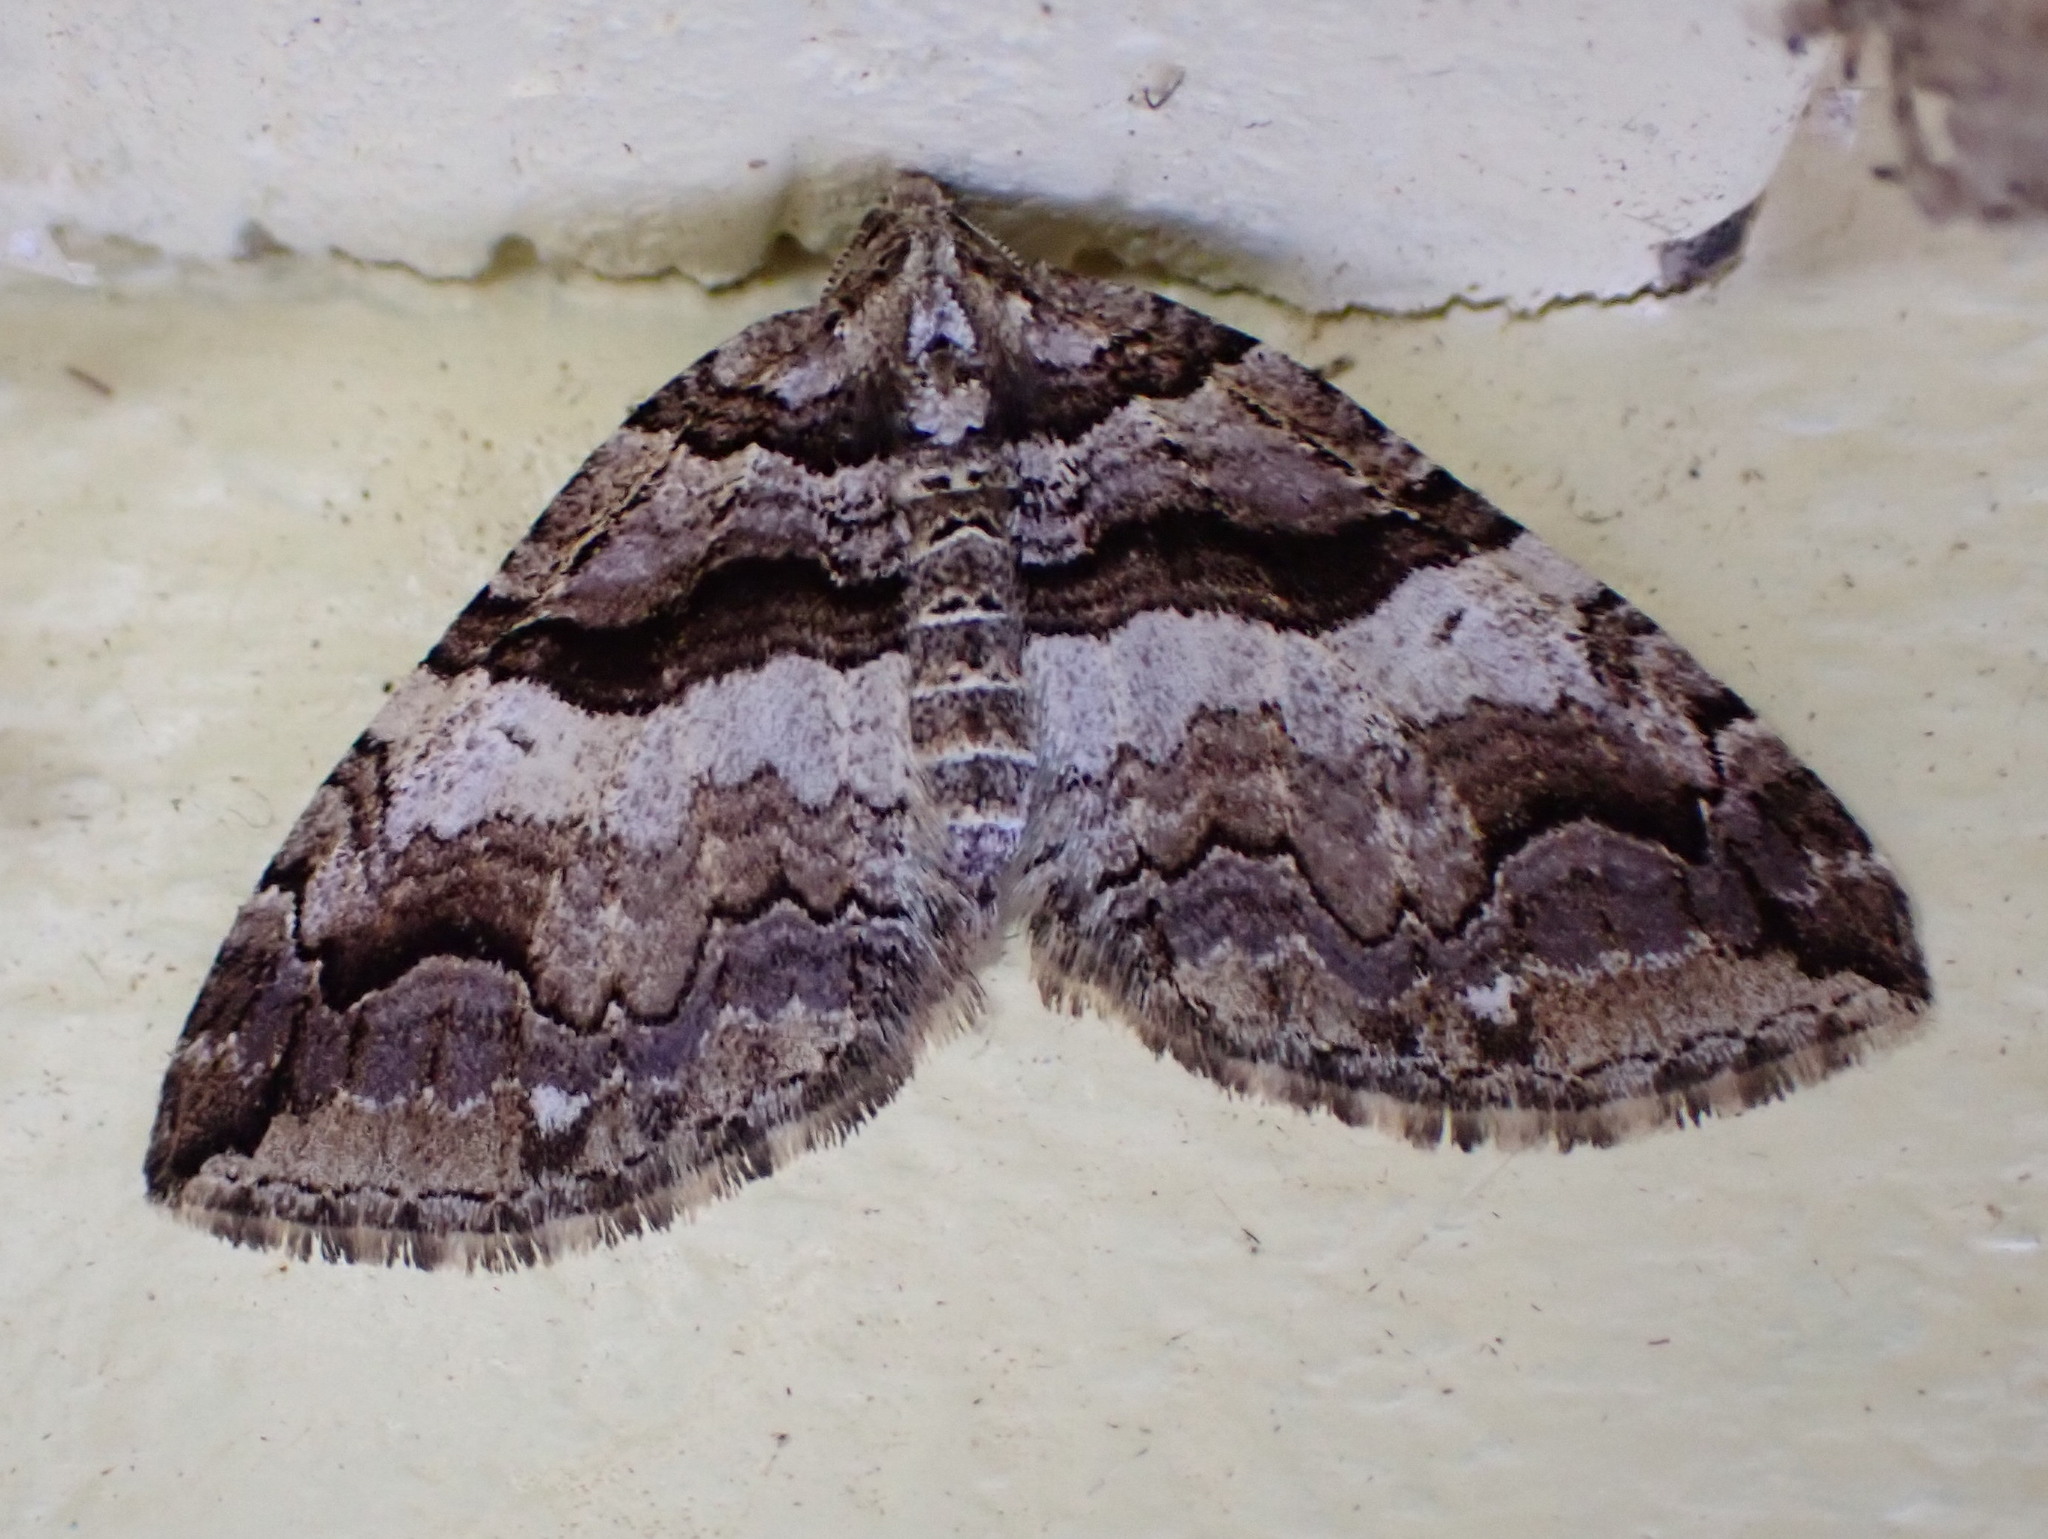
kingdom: Animalia
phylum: Arthropoda
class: Insecta
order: Lepidoptera
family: Geometridae
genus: Anticlea
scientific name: Anticlea vasiliata
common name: Variable carpet
